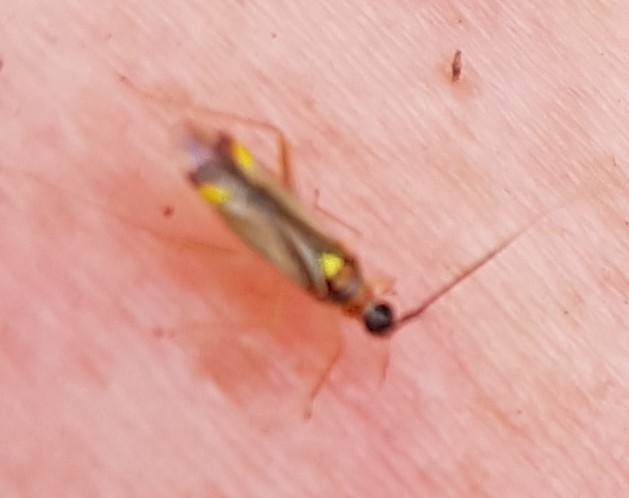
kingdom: Animalia
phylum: Arthropoda
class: Insecta
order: Hemiptera
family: Miridae
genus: Campyloneura
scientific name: Campyloneura virgula
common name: Predatory bug
